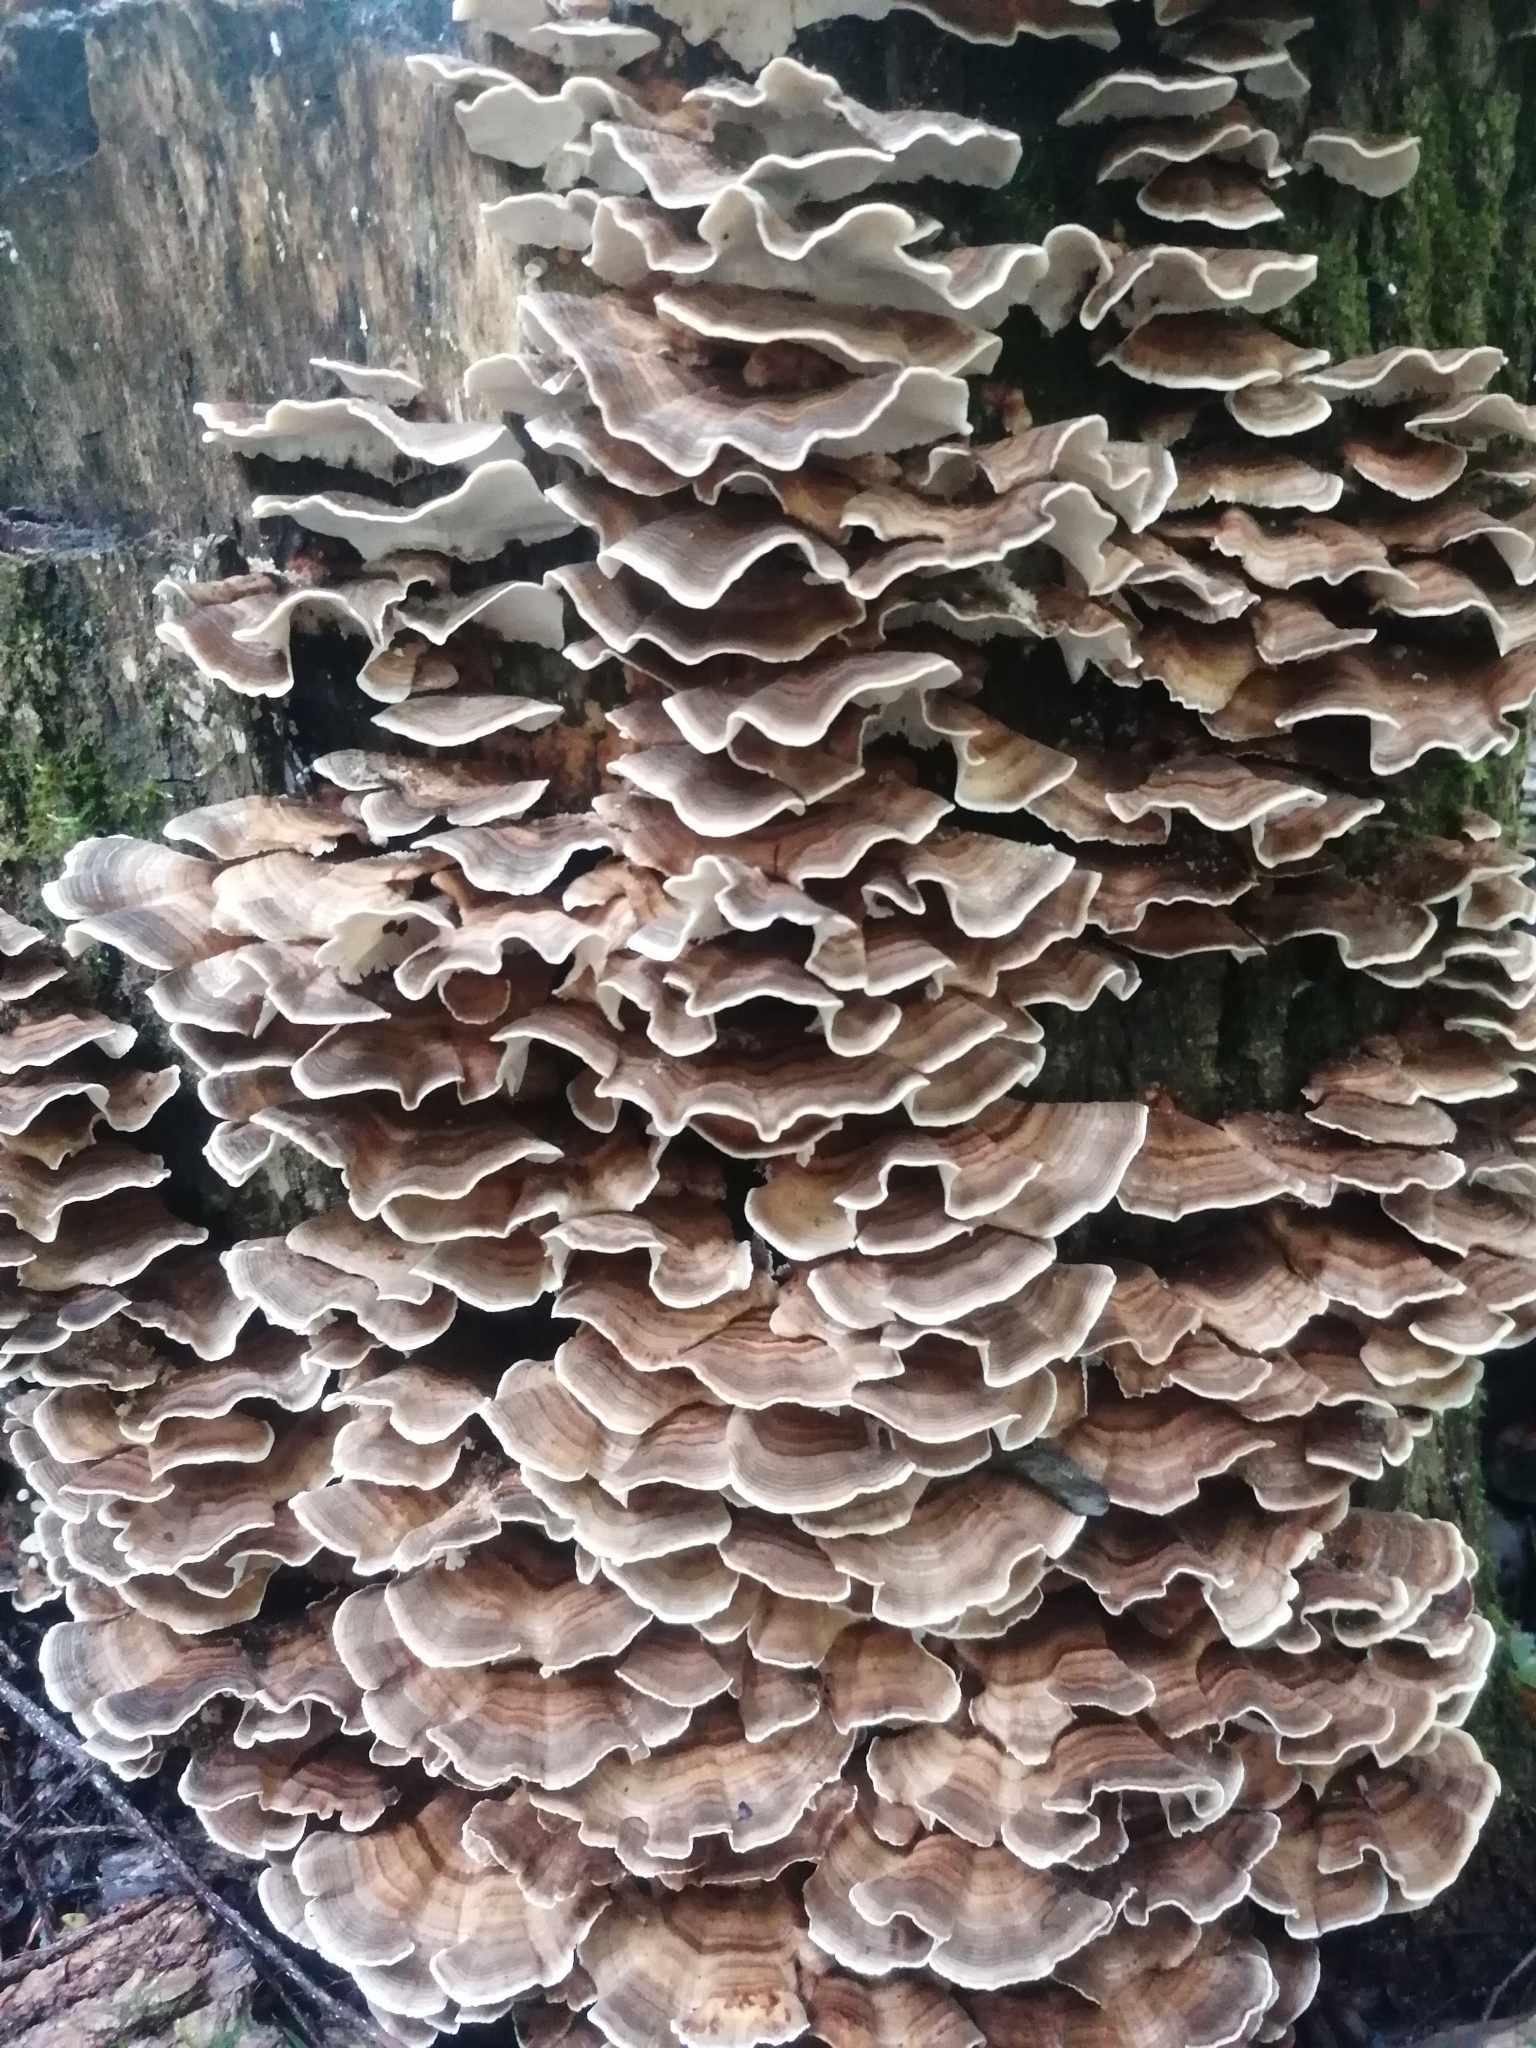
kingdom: Fungi
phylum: Basidiomycota
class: Agaricomycetes
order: Polyporales
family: Polyporaceae
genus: Trametes
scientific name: Trametes versicolor
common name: Turkeytail
